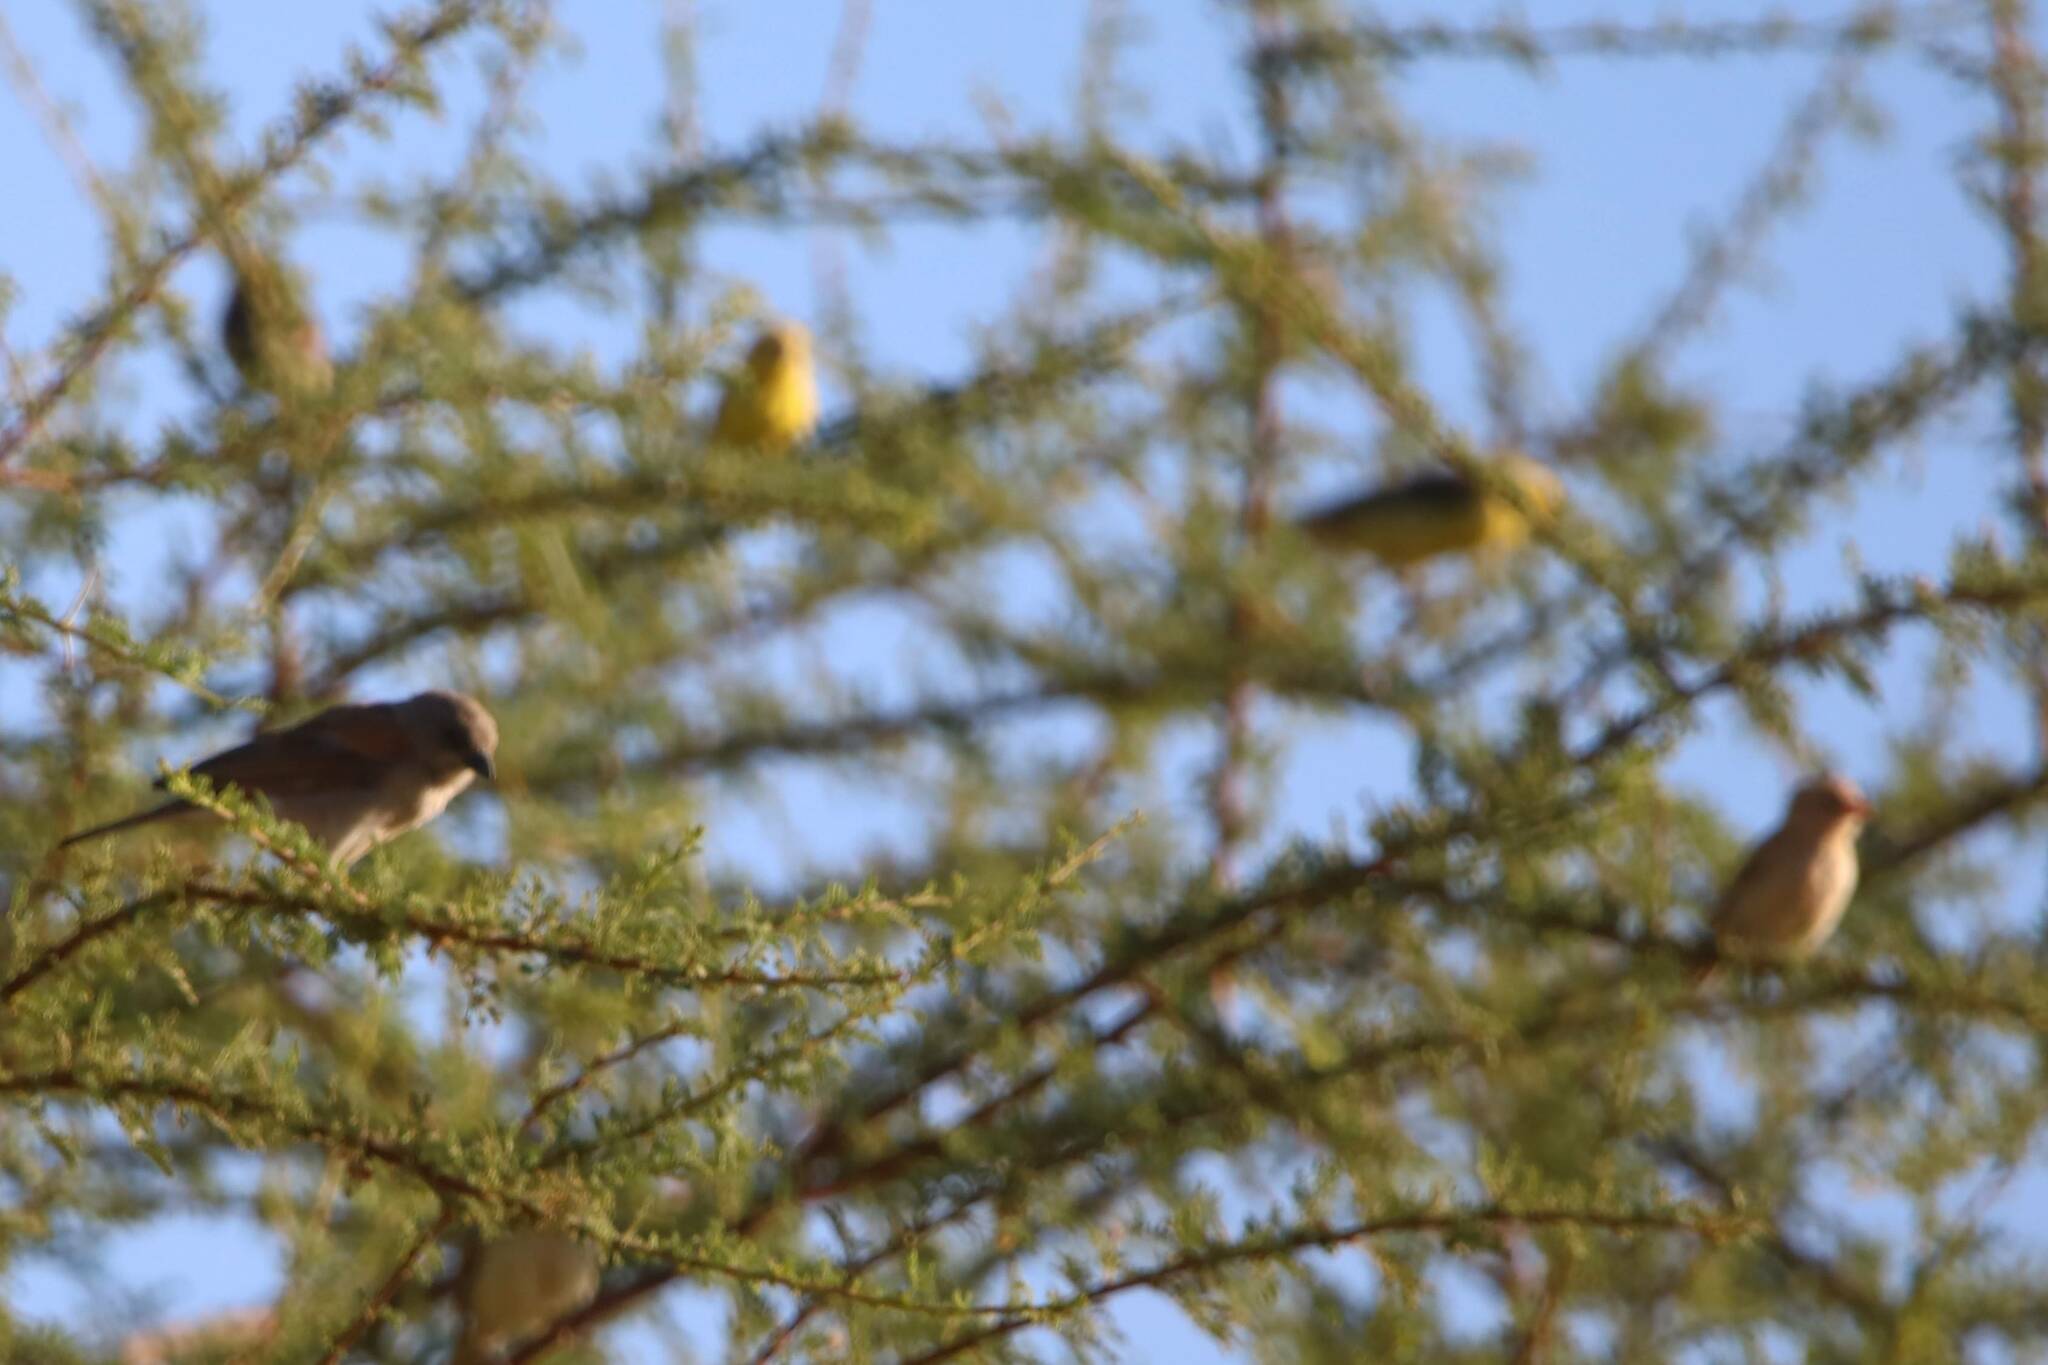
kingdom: Animalia
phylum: Chordata
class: Aves
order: Passeriformes
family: Passeridae
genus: Passer
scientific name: Passer luteus
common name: Sudan golden sparrow
